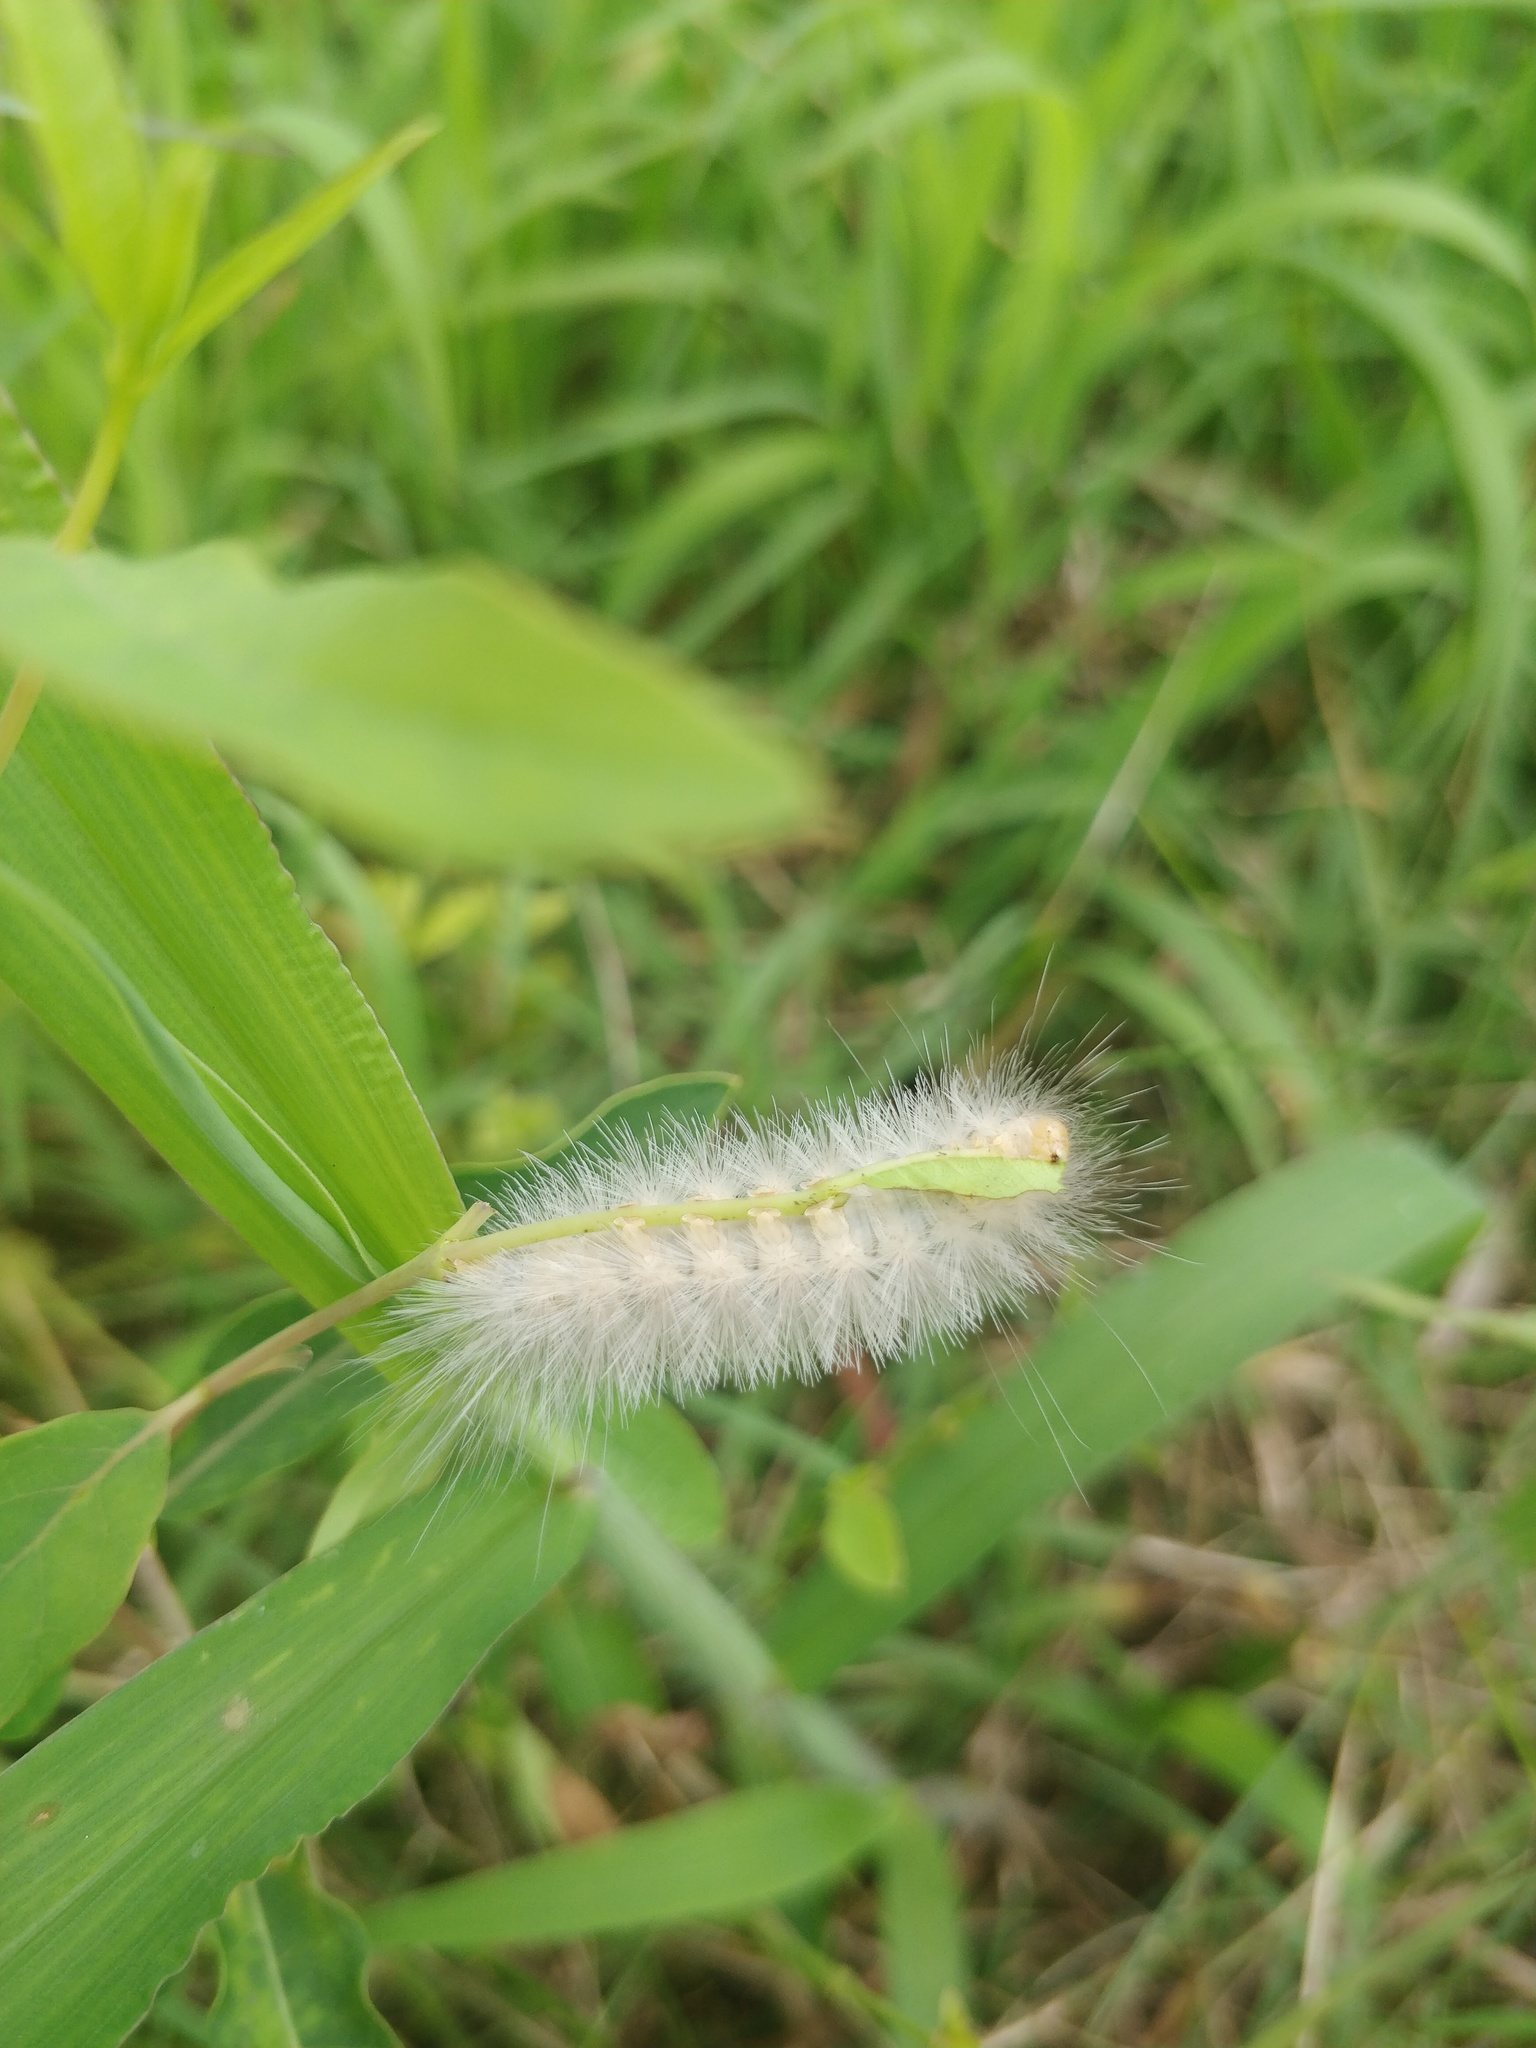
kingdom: Animalia
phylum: Arthropoda
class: Insecta
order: Lepidoptera
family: Erebidae
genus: Spilosoma
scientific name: Spilosoma virginica
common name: Virginia tiger moth
